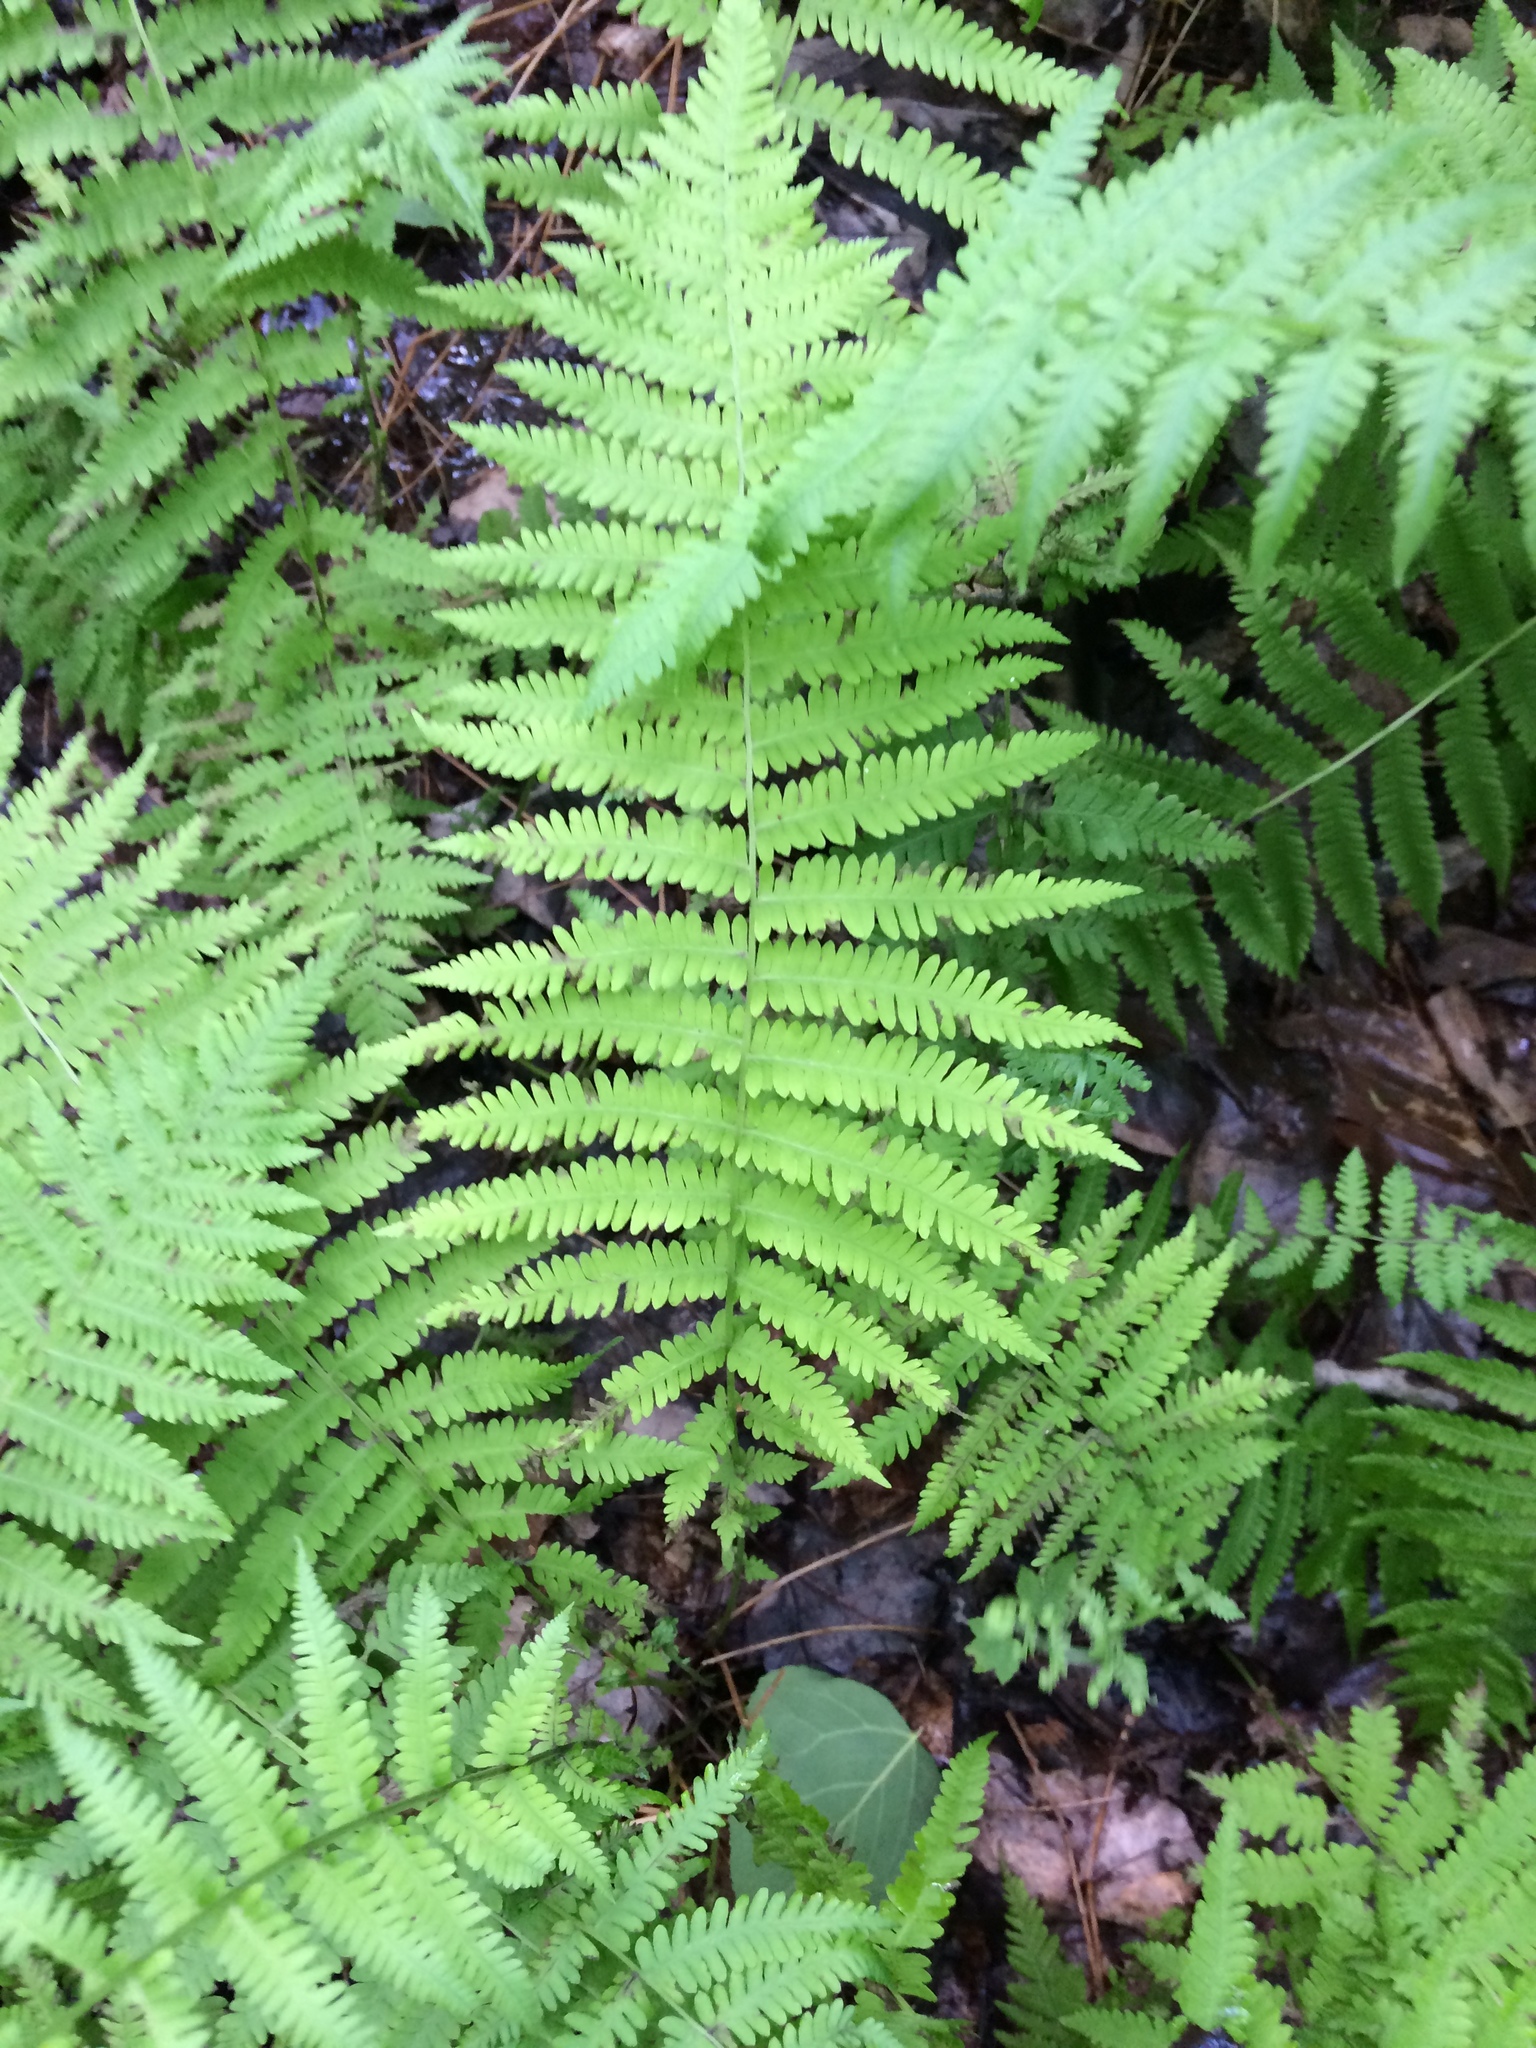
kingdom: Plantae
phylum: Tracheophyta
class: Polypodiopsida
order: Polypodiales
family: Thelypteridaceae
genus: Amauropelta
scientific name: Amauropelta noveboracensis
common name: New york fern
